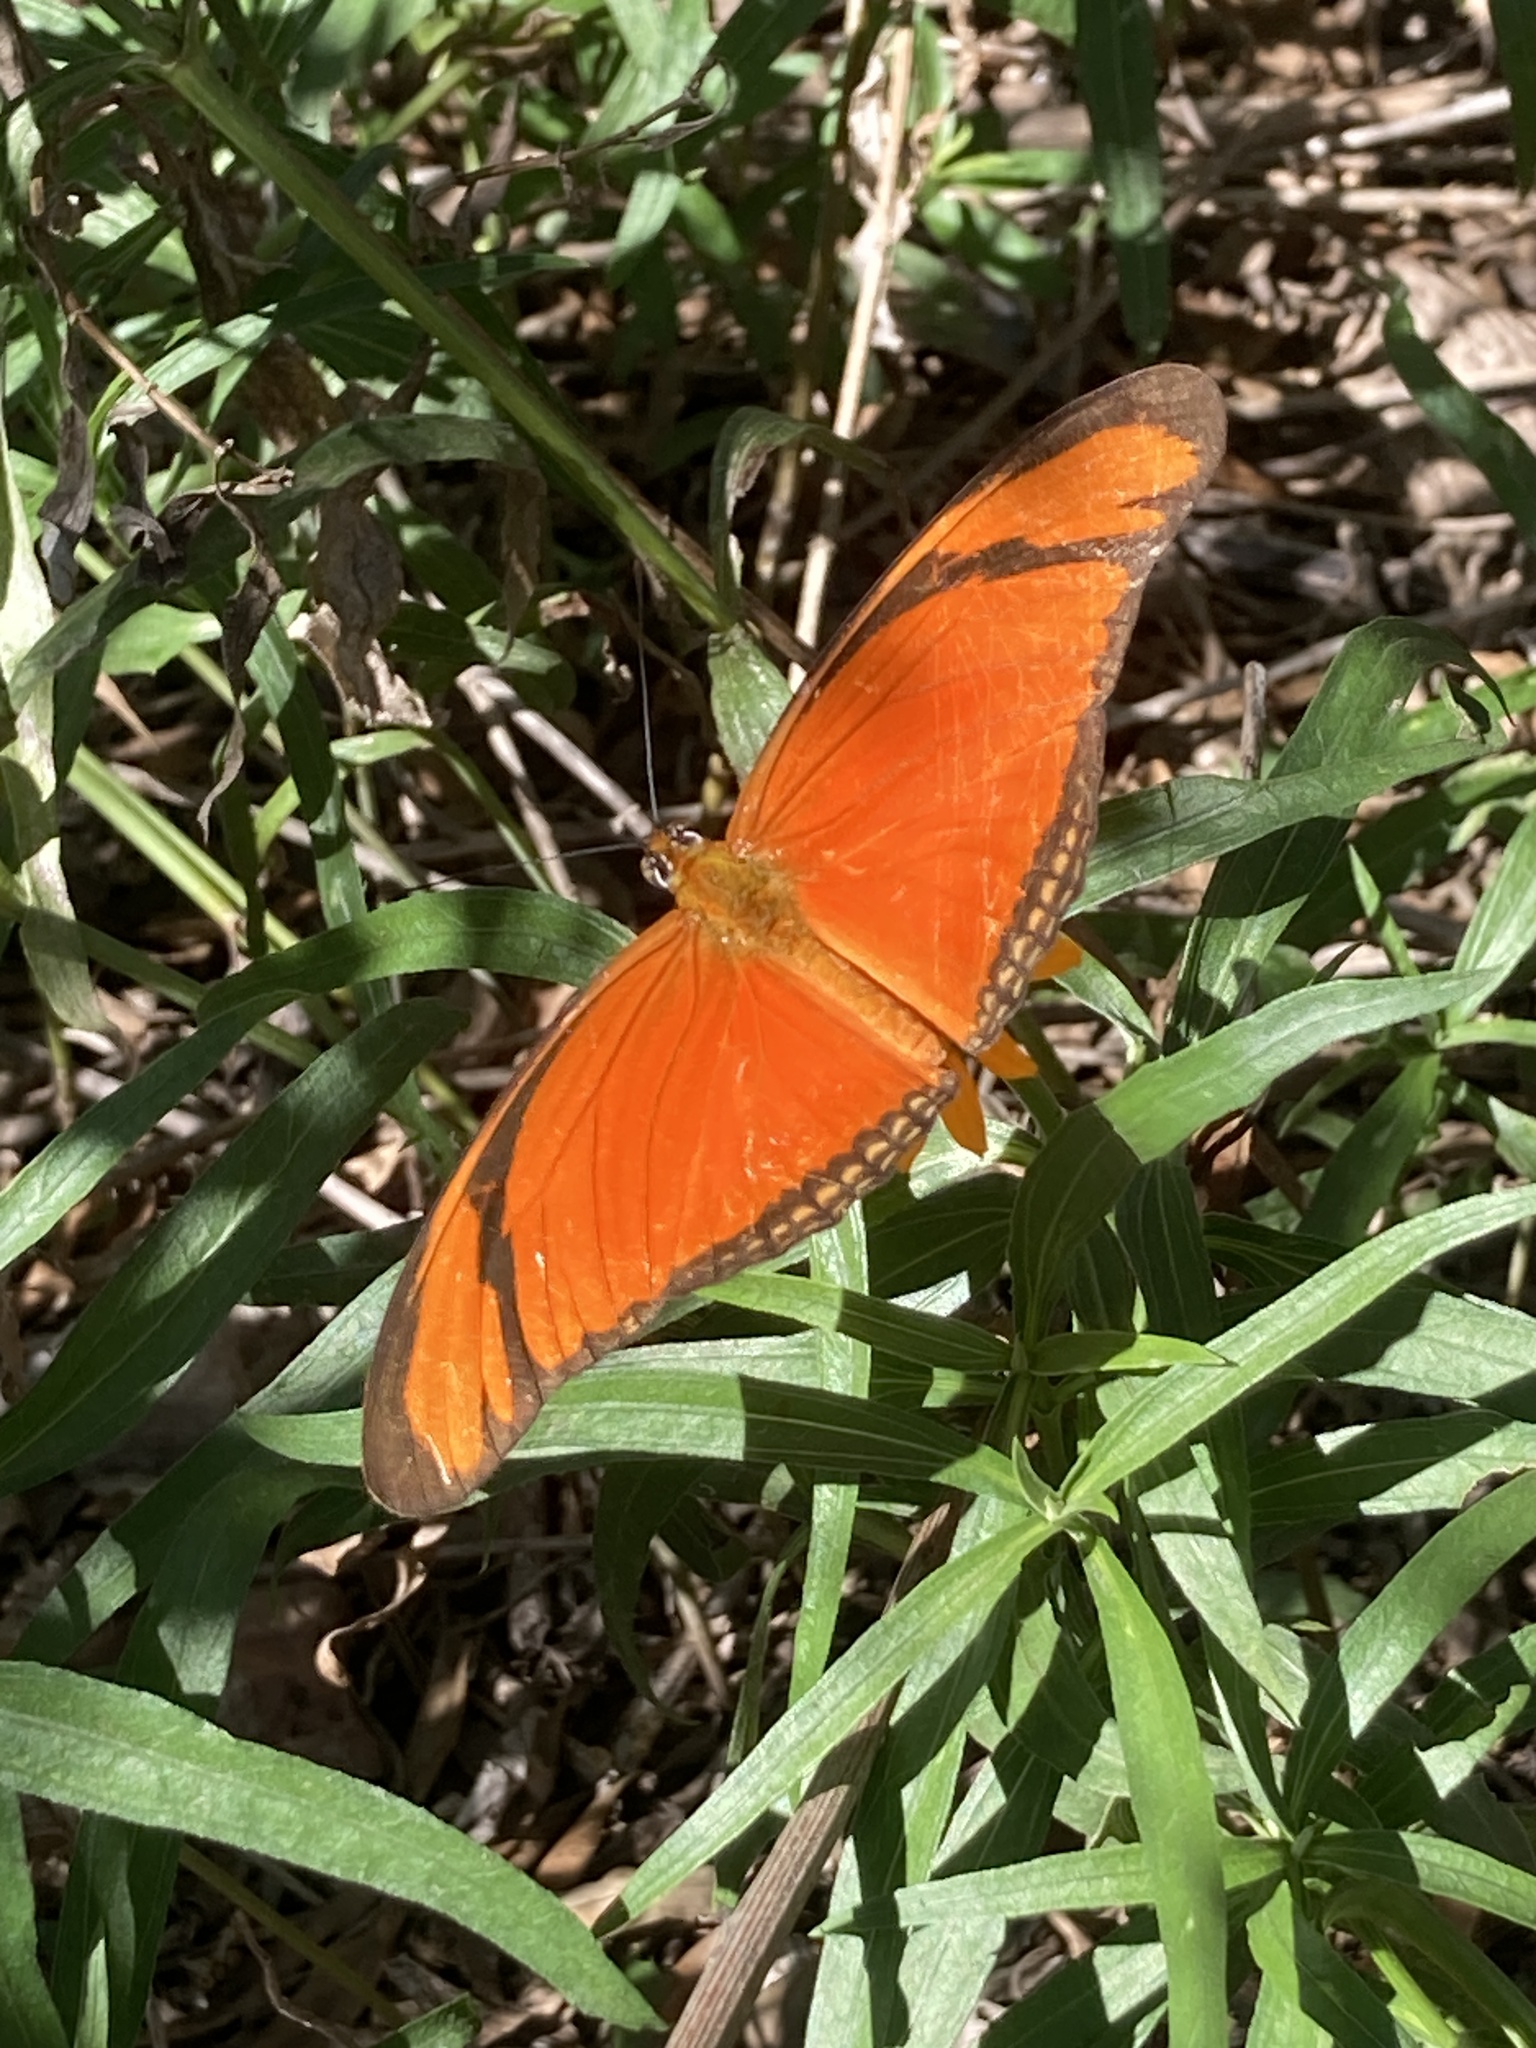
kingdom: Animalia
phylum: Arthropoda
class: Insecta
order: Lepidoptera
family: Nymphalidae
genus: Dryas
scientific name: Dryas iulia
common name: Flambeau
